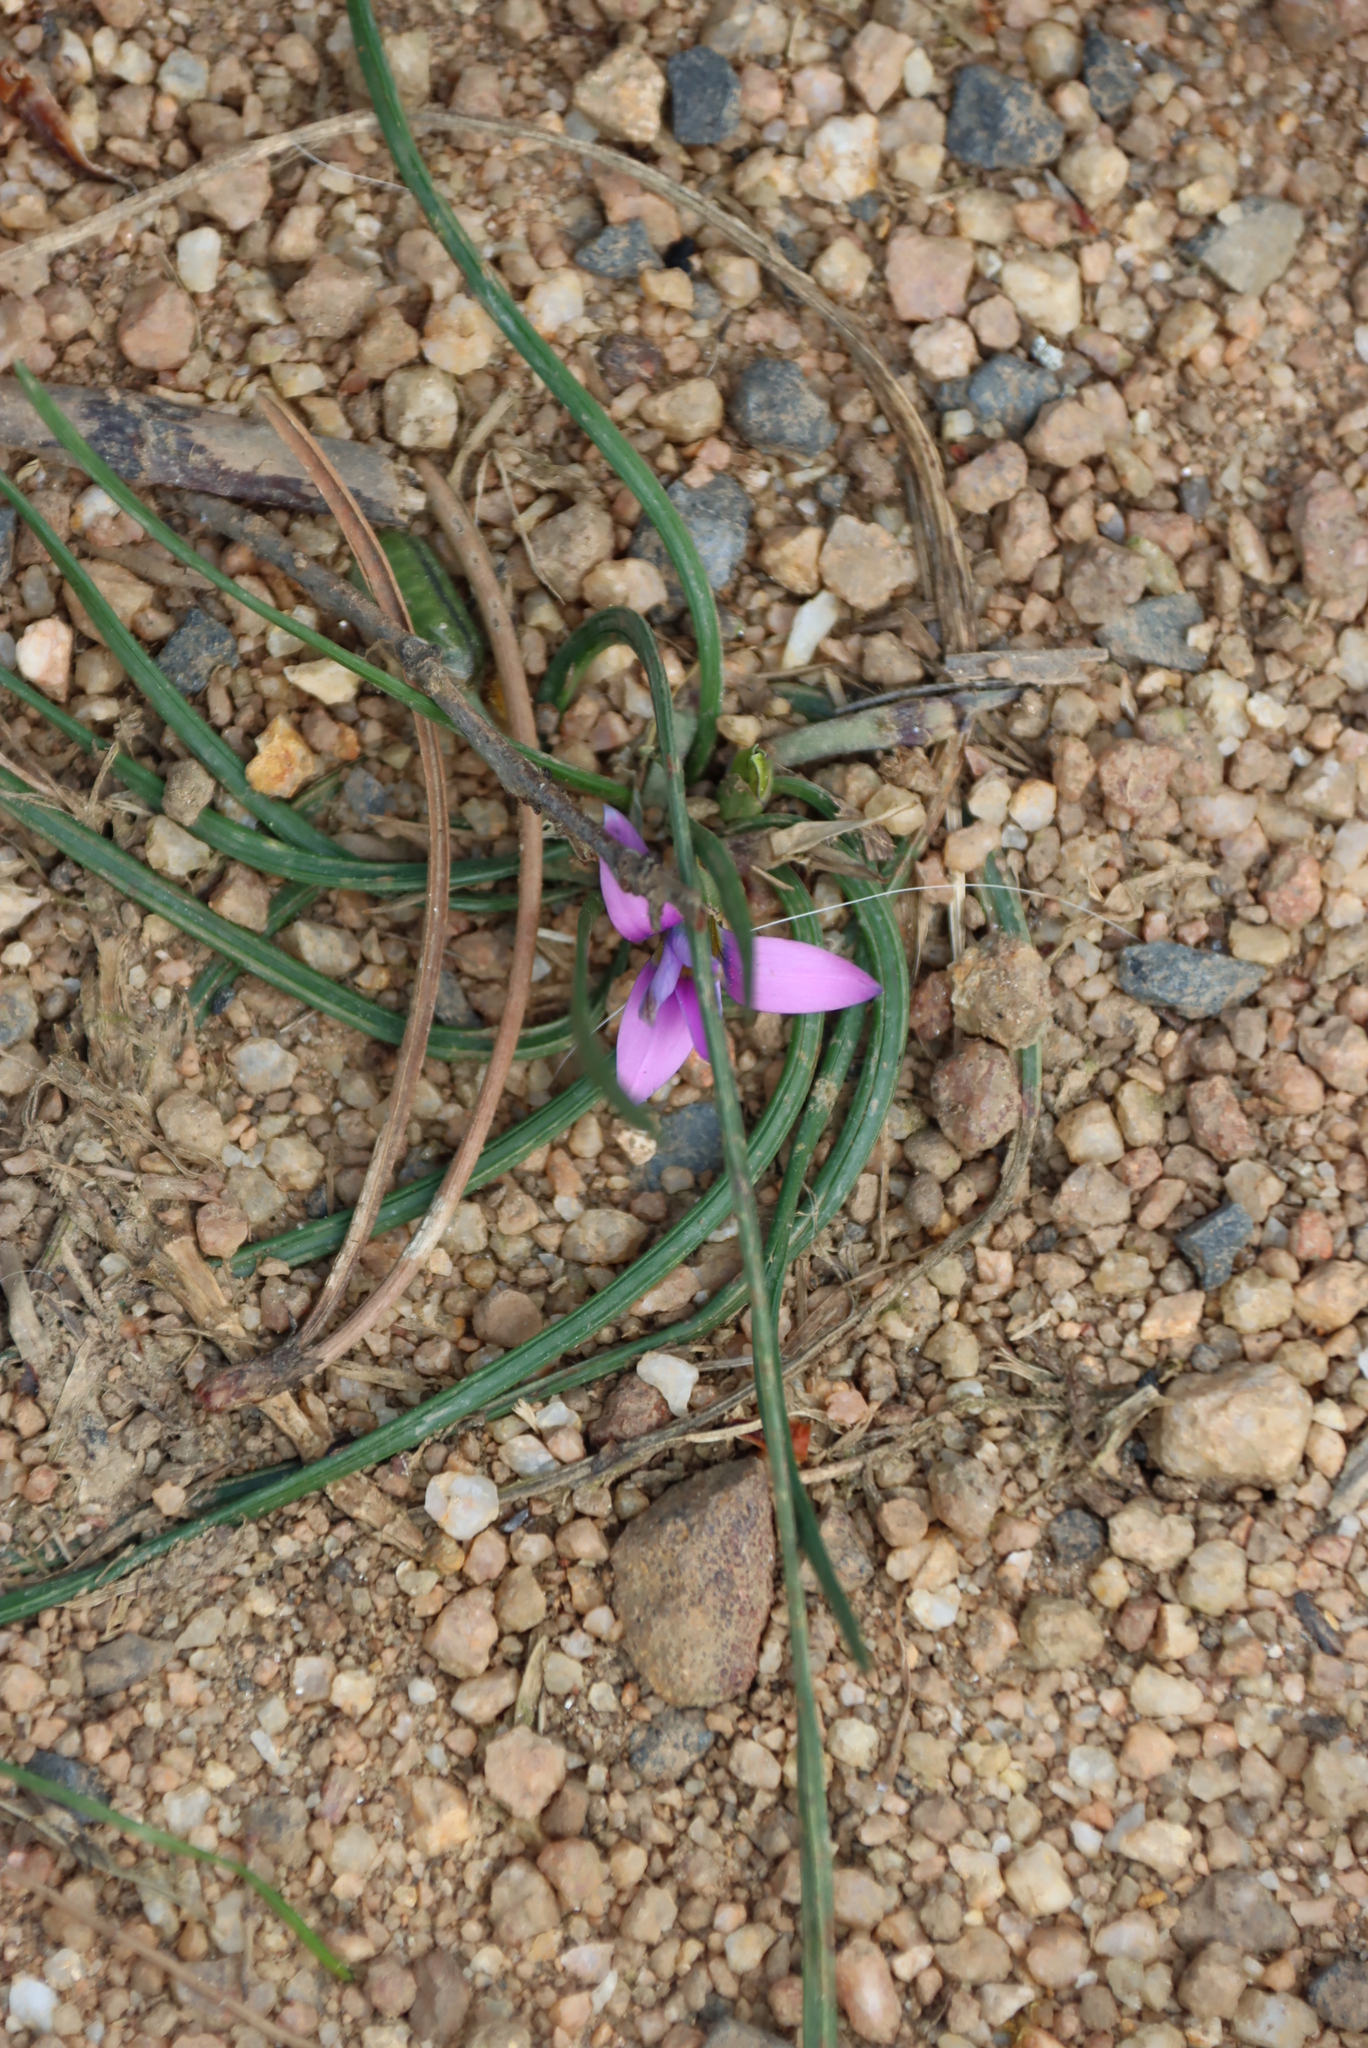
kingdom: Plantae
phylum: Tracheophyta
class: Liliopsida
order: Asparagales
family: Iridaceae
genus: Romulea
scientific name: Romulea rosea
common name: Oniongrass
